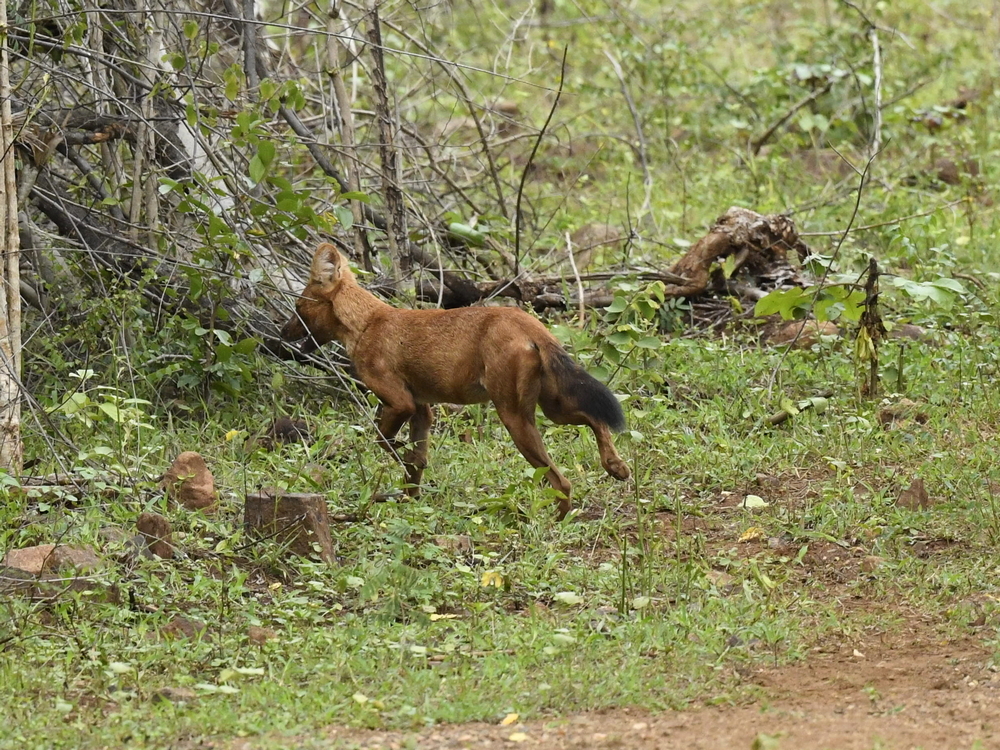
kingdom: Animalia
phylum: Chordata
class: Mammalia
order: Carnivora
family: Canidae
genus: Cuon
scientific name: Cuon alpinus
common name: Dhole
